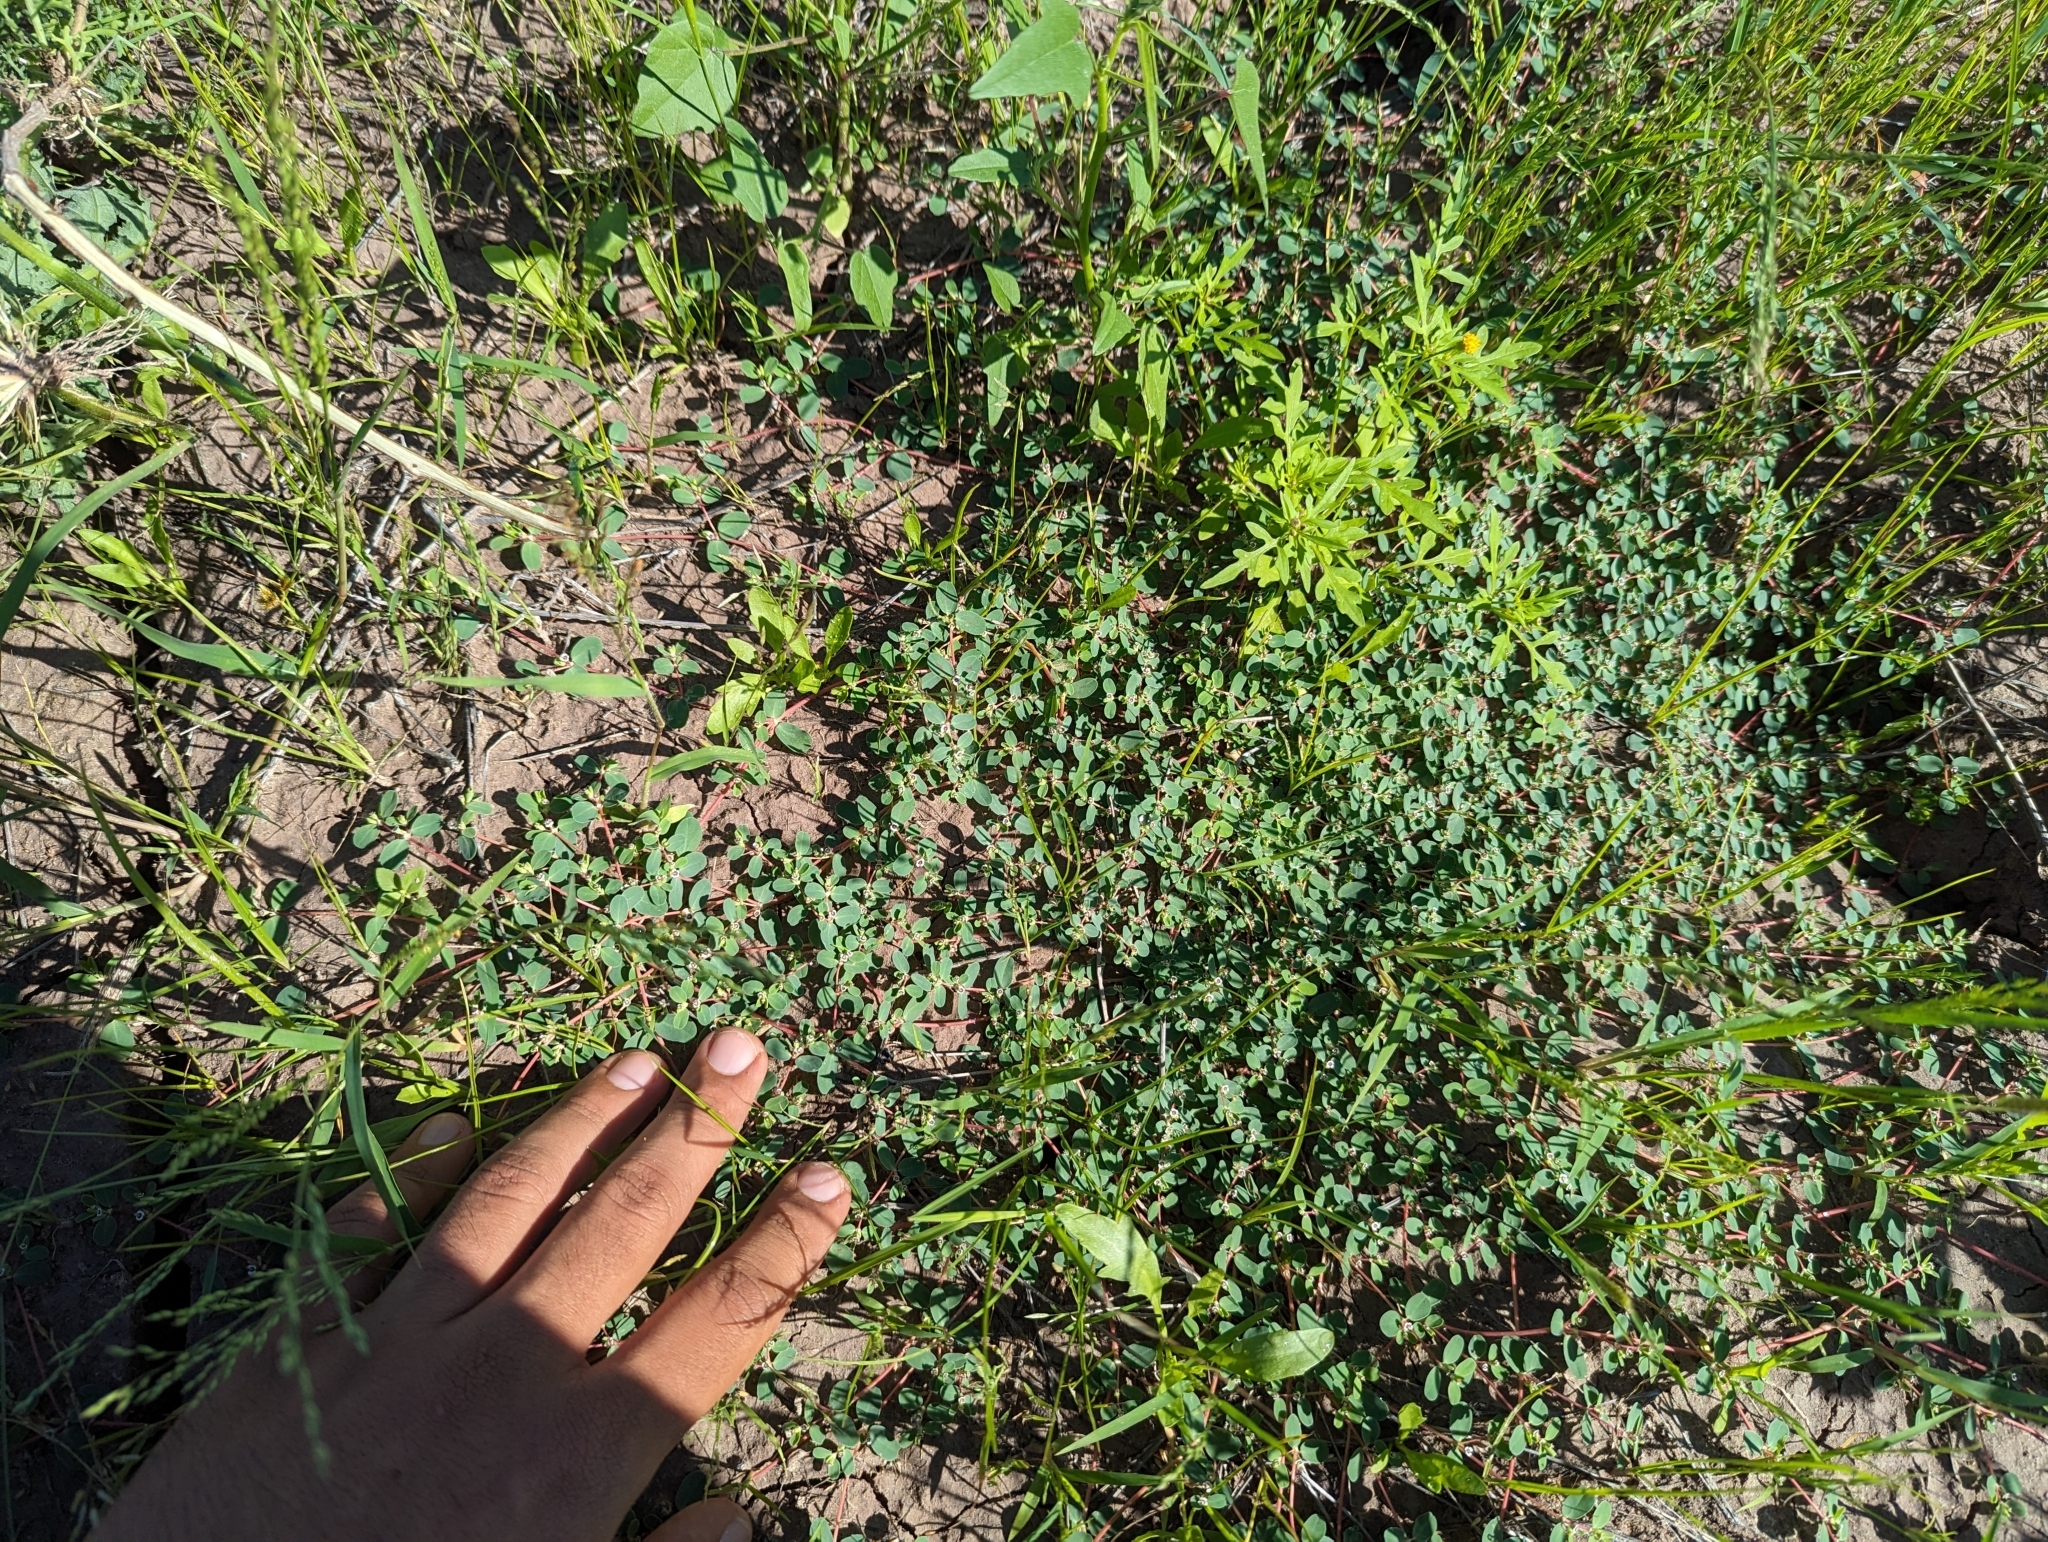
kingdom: Plantae
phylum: Tracheophyta
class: Magnoliopsida
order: Malpighiales
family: Euphorbiaceae
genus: Euphorbia
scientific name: Euphorbia albomarginata
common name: Whitemargin sandmat
